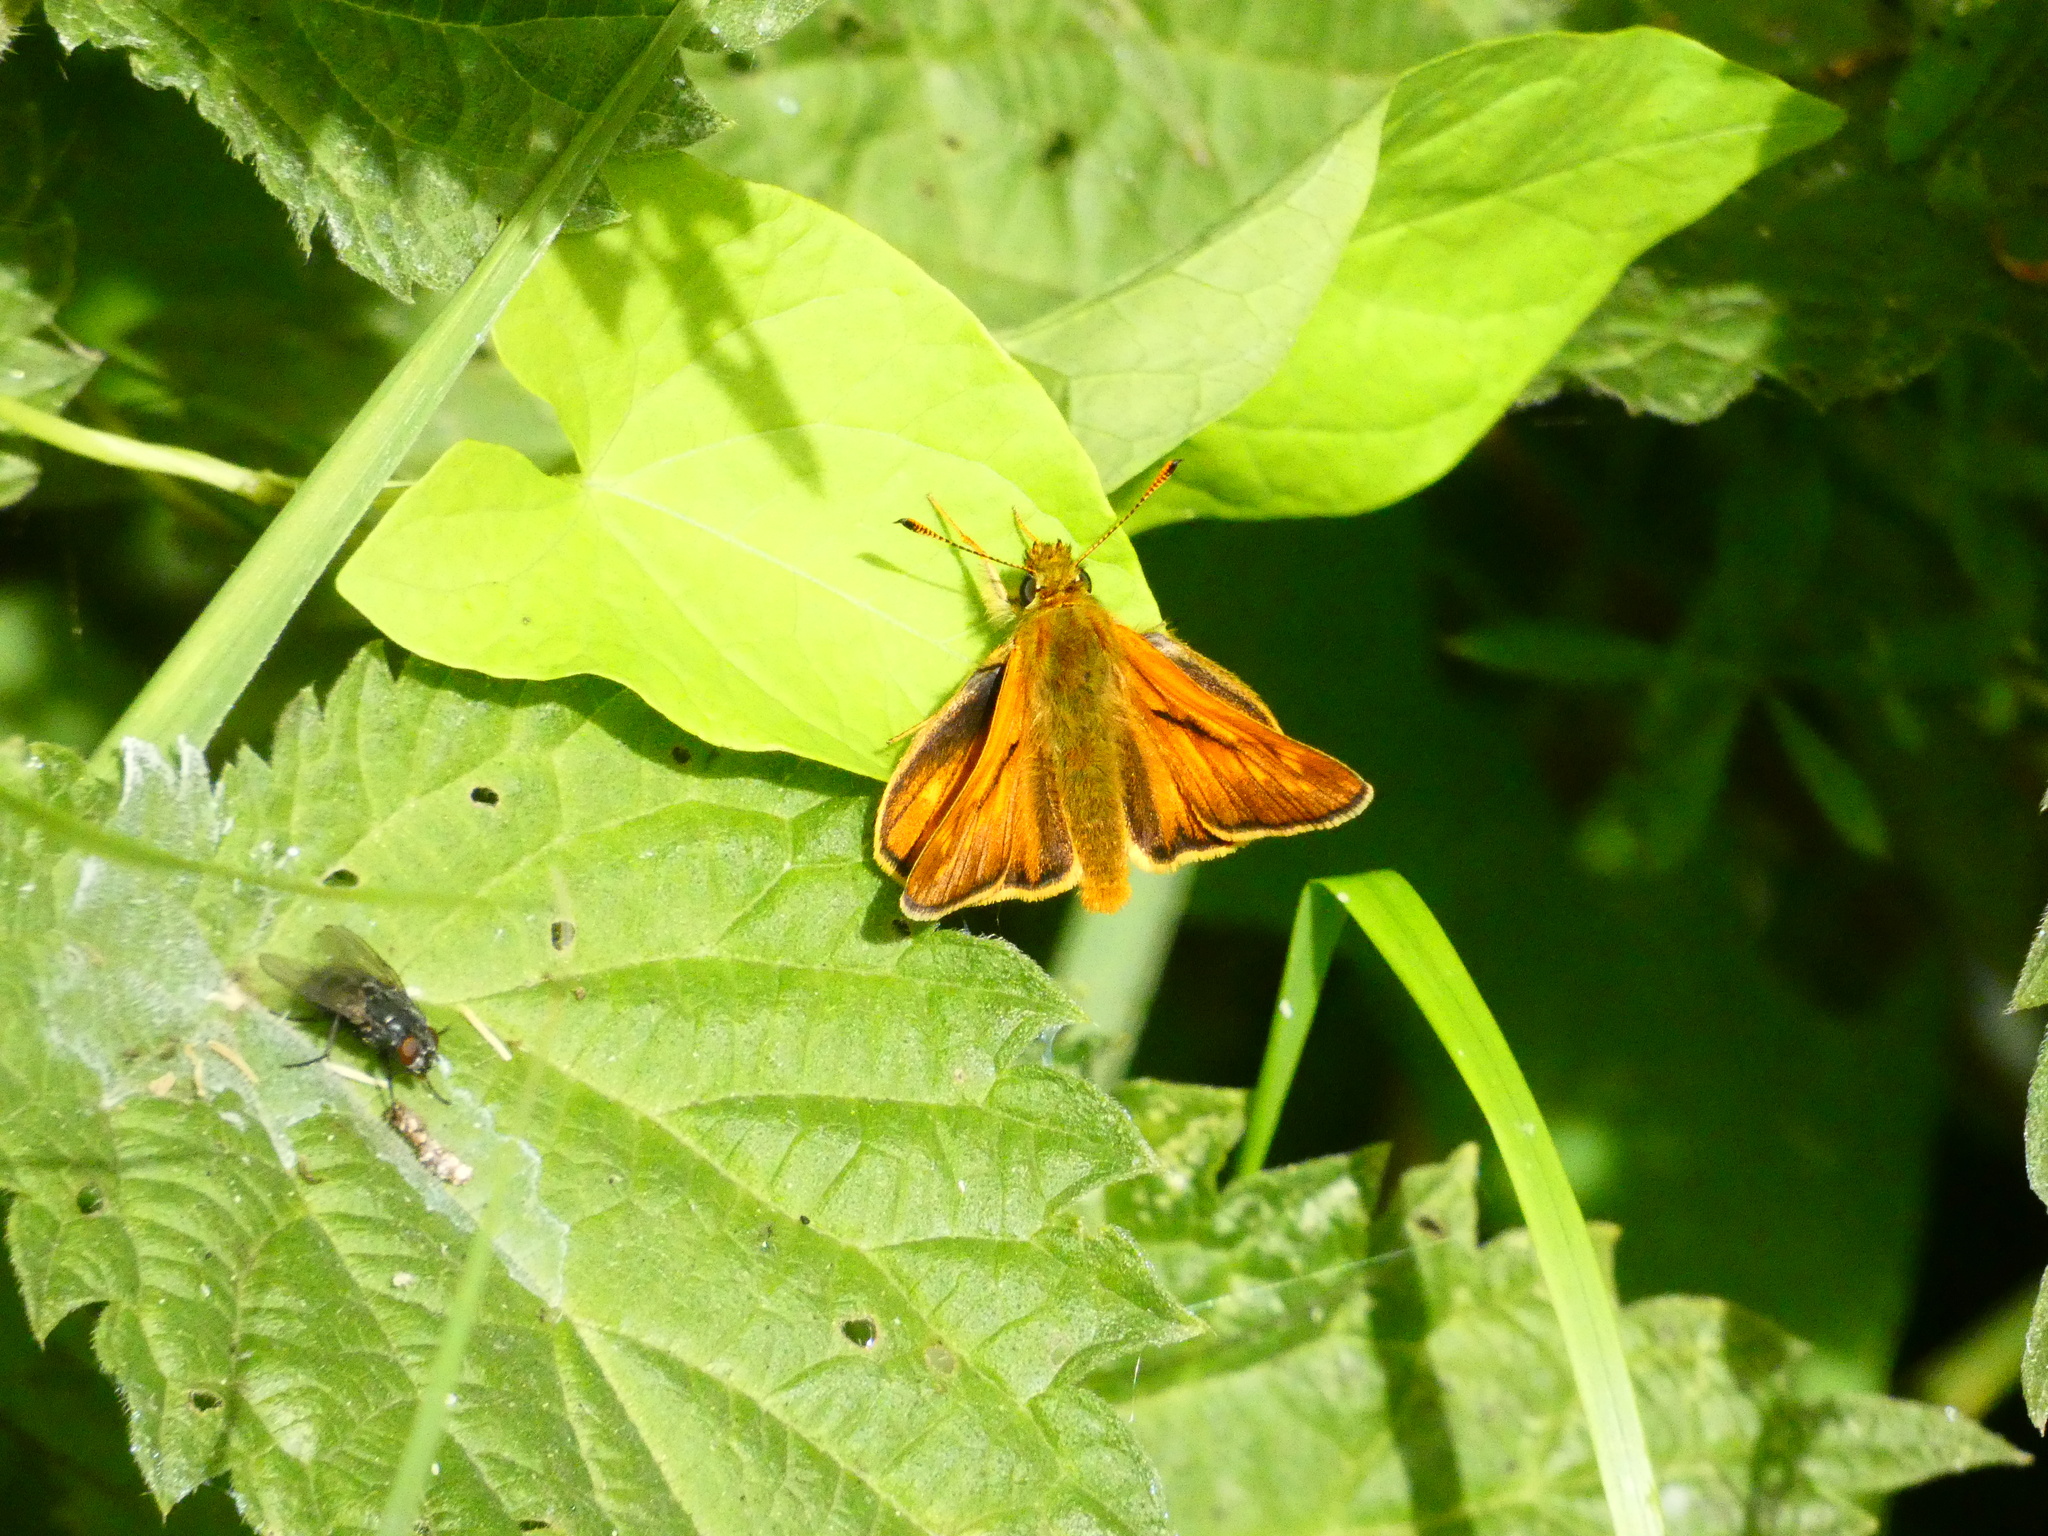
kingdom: Animalia
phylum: Arthropoda
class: Insecta
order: Lepidoptera
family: Hesperiidae
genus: Ochlodes
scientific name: Ochlodes venata
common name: Large skipper
